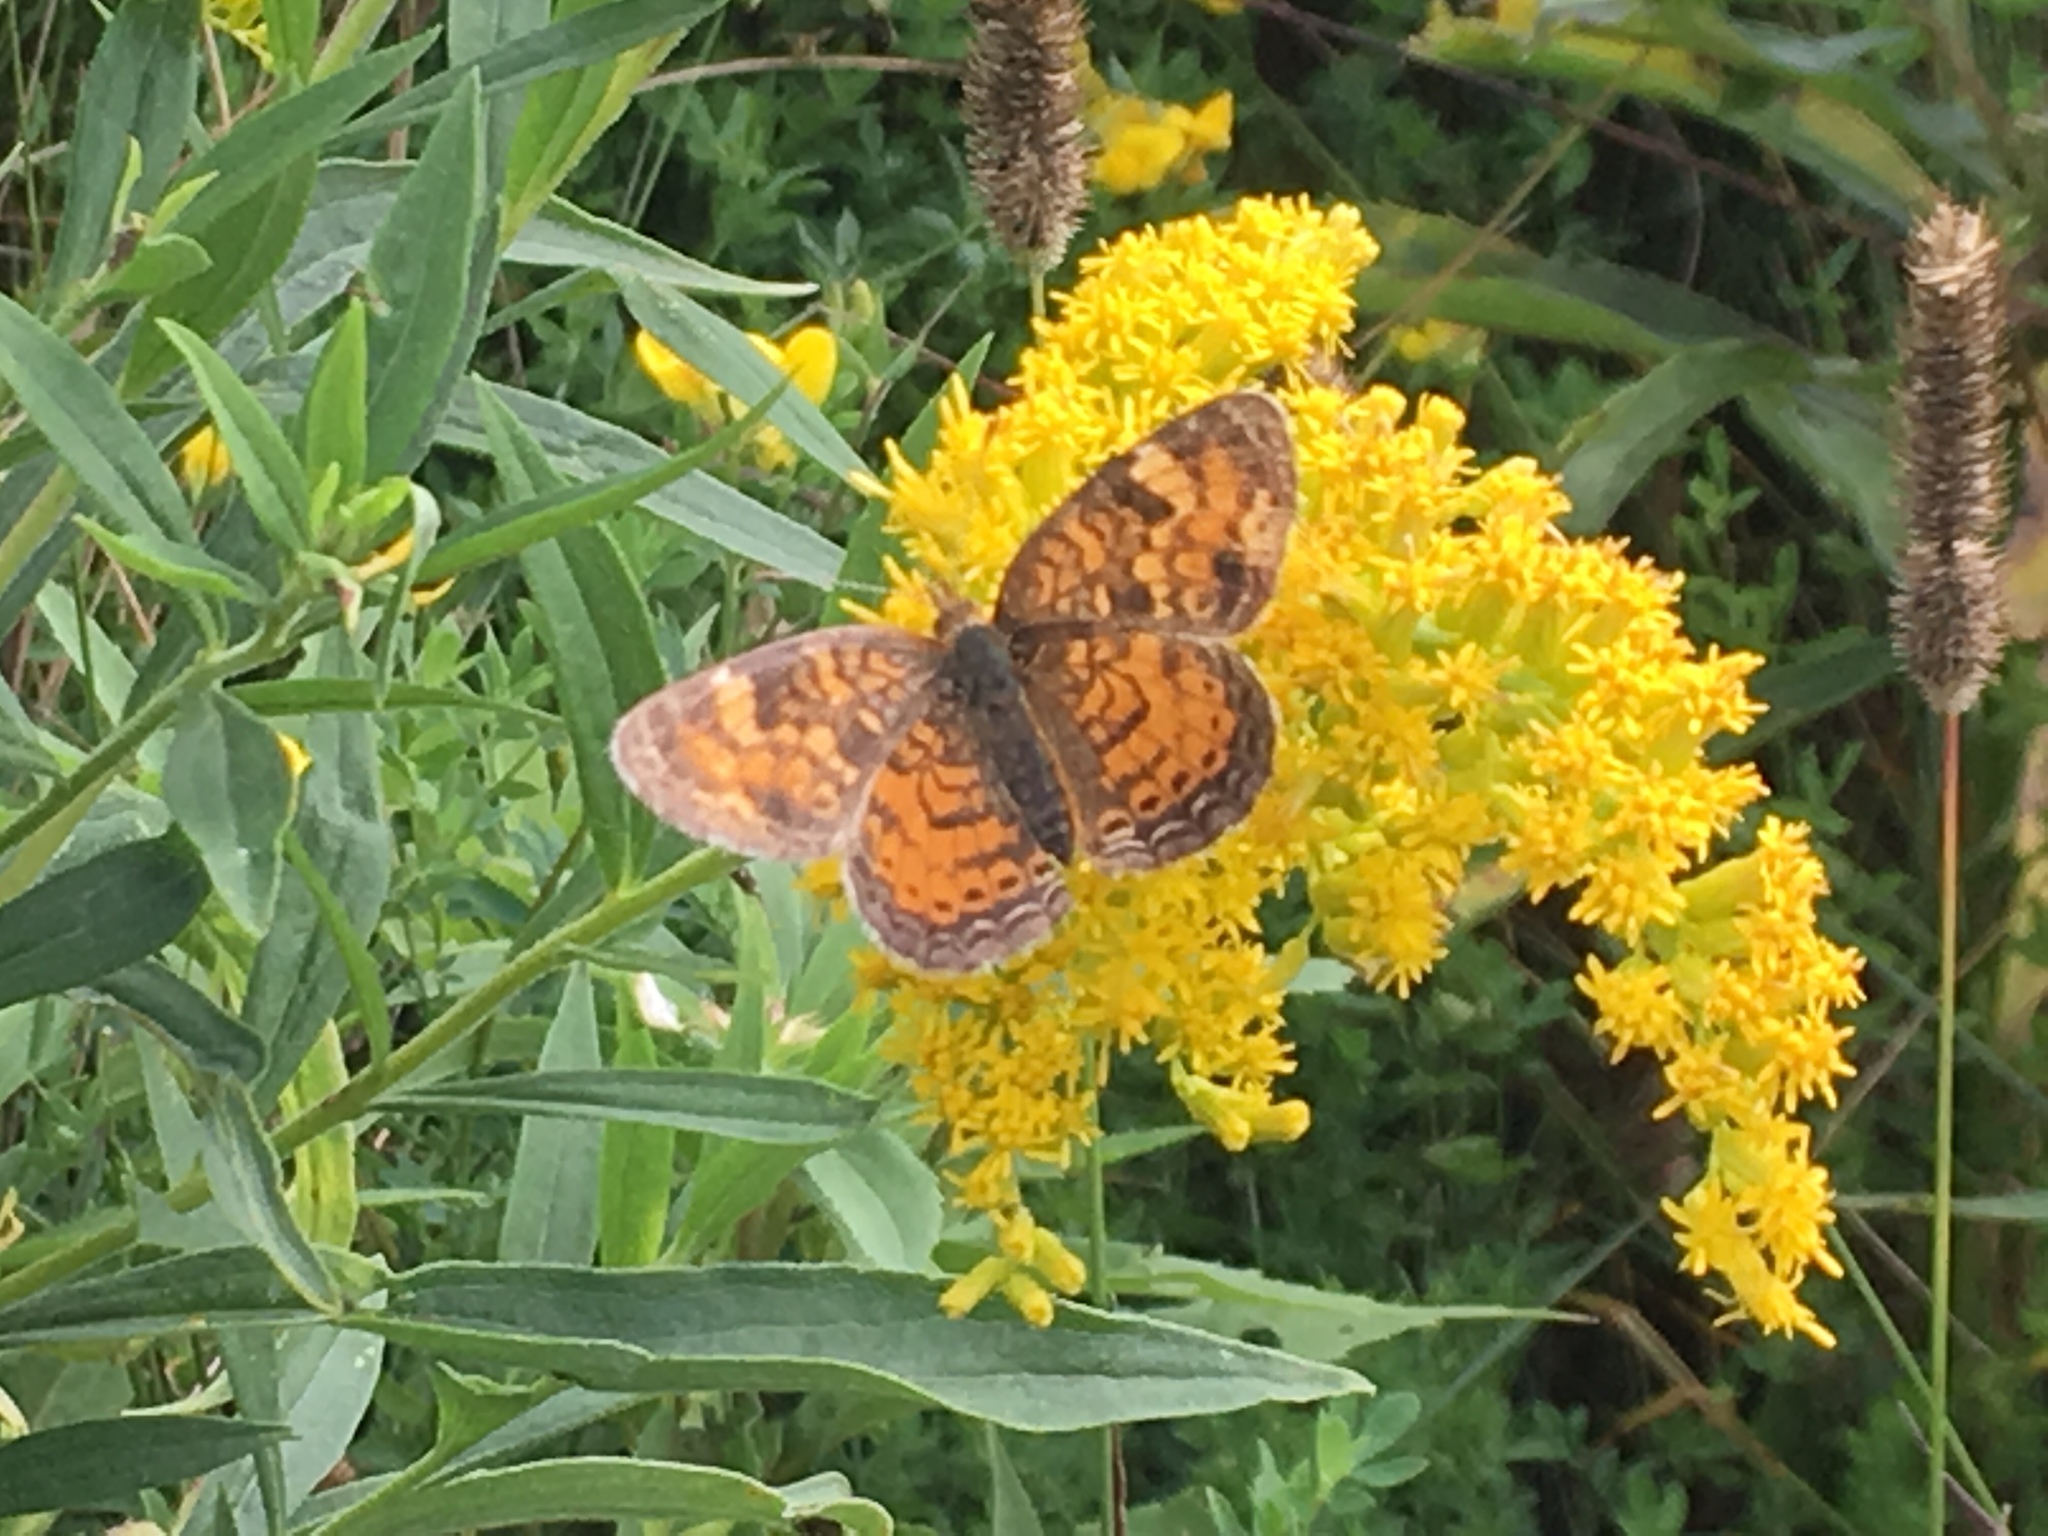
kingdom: Animalia
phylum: Arthropoda
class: Insecta
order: Lepidoptera
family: Nymphalidae
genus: Phyciodes
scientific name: Phyciodes tharos
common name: Pearl crescent
